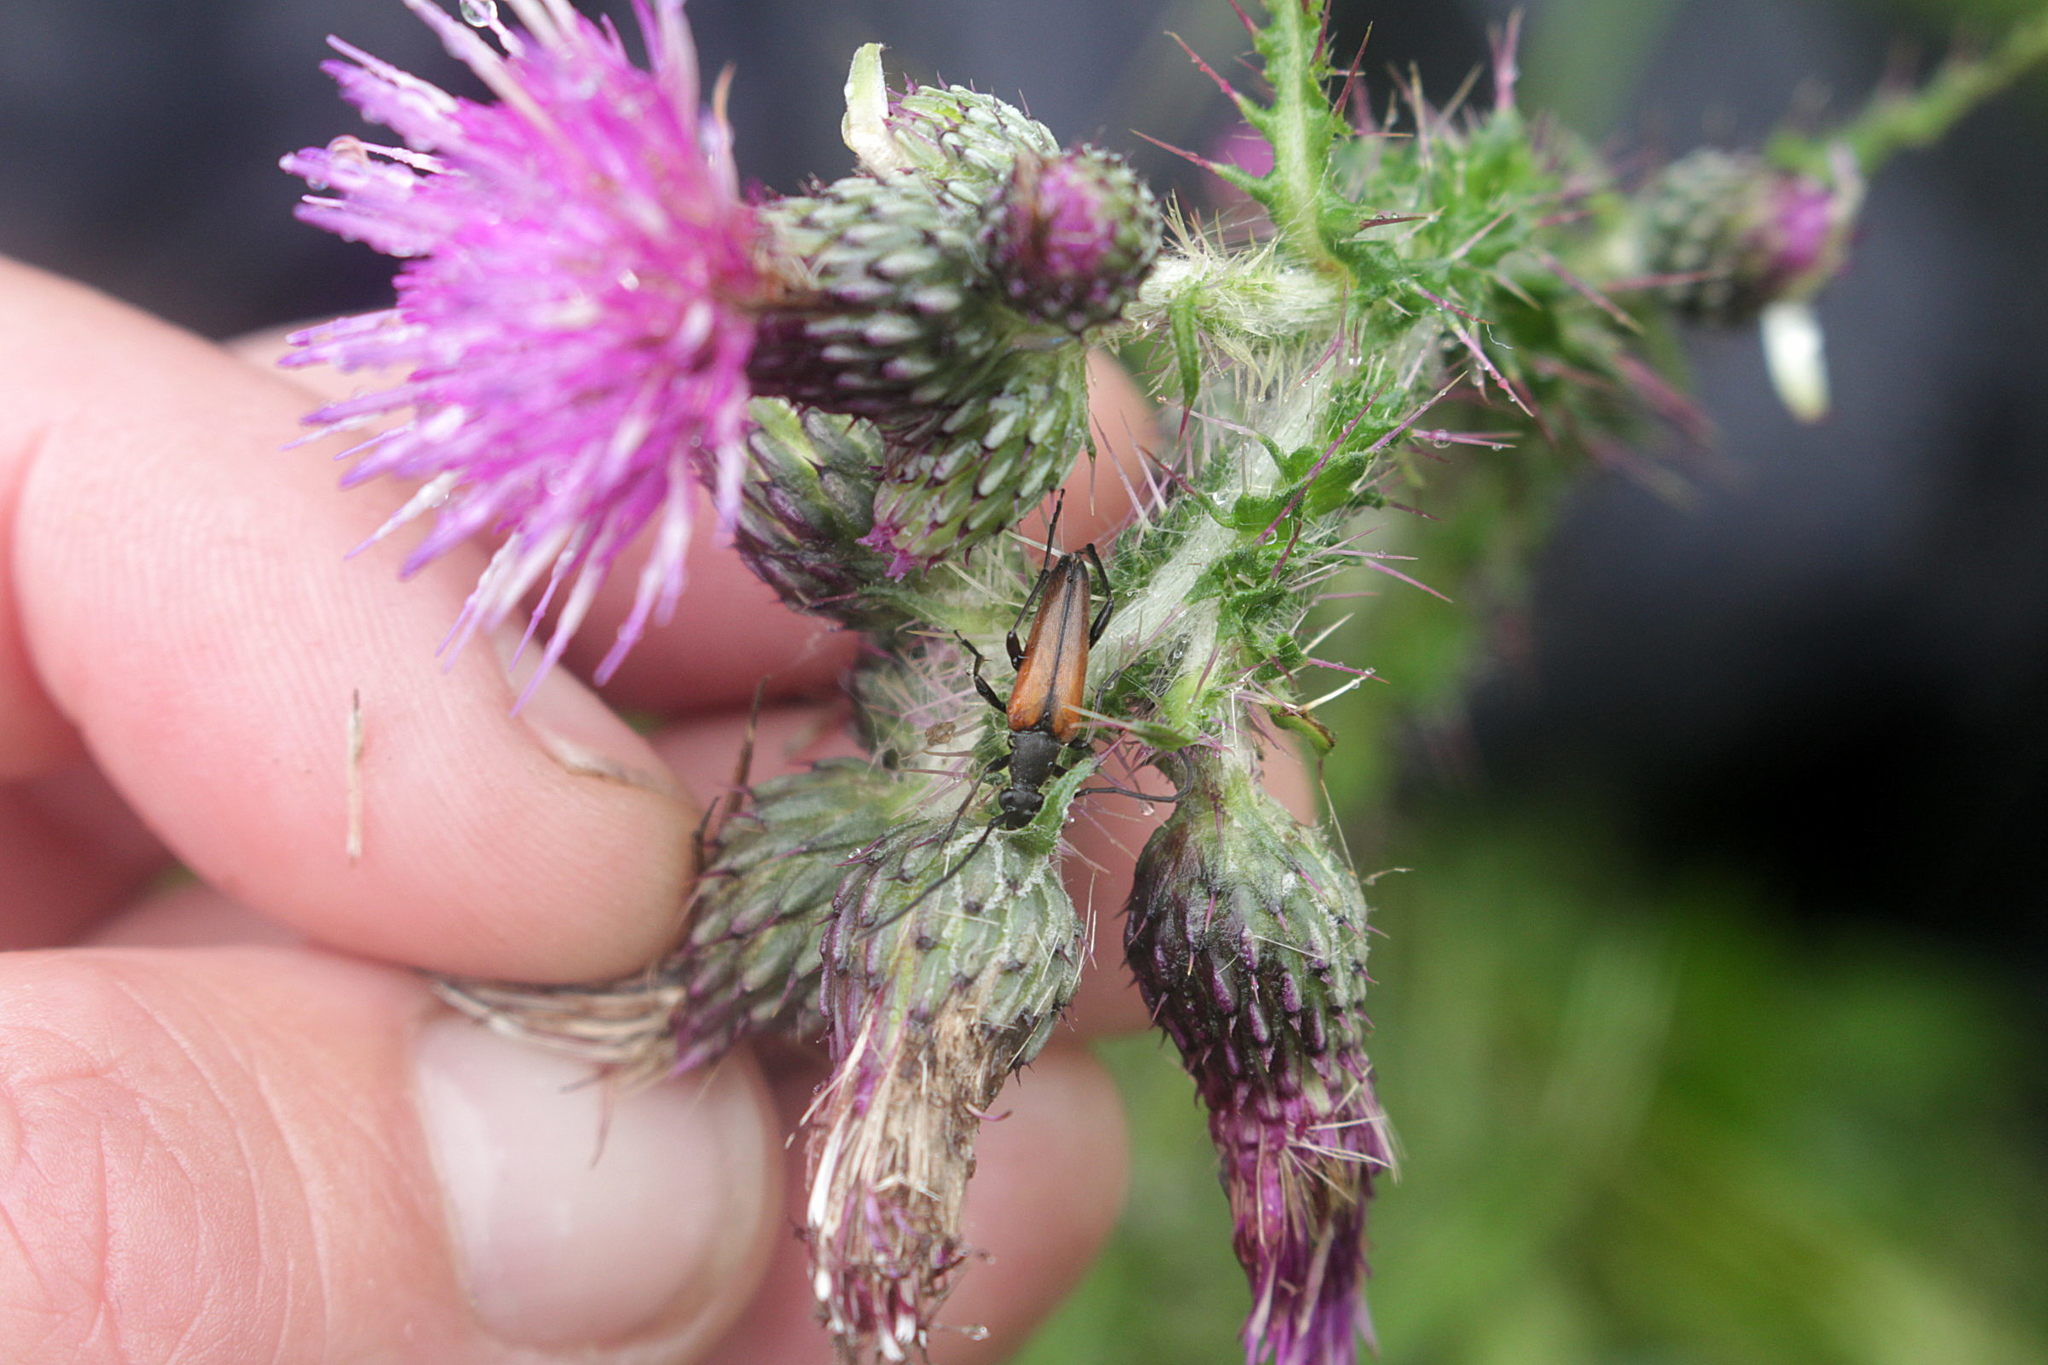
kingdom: Animalia
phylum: Arthropoda
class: Insecta
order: Coleoptera
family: Cerambycidae
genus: Stenurella
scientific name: Stenurella melanura
